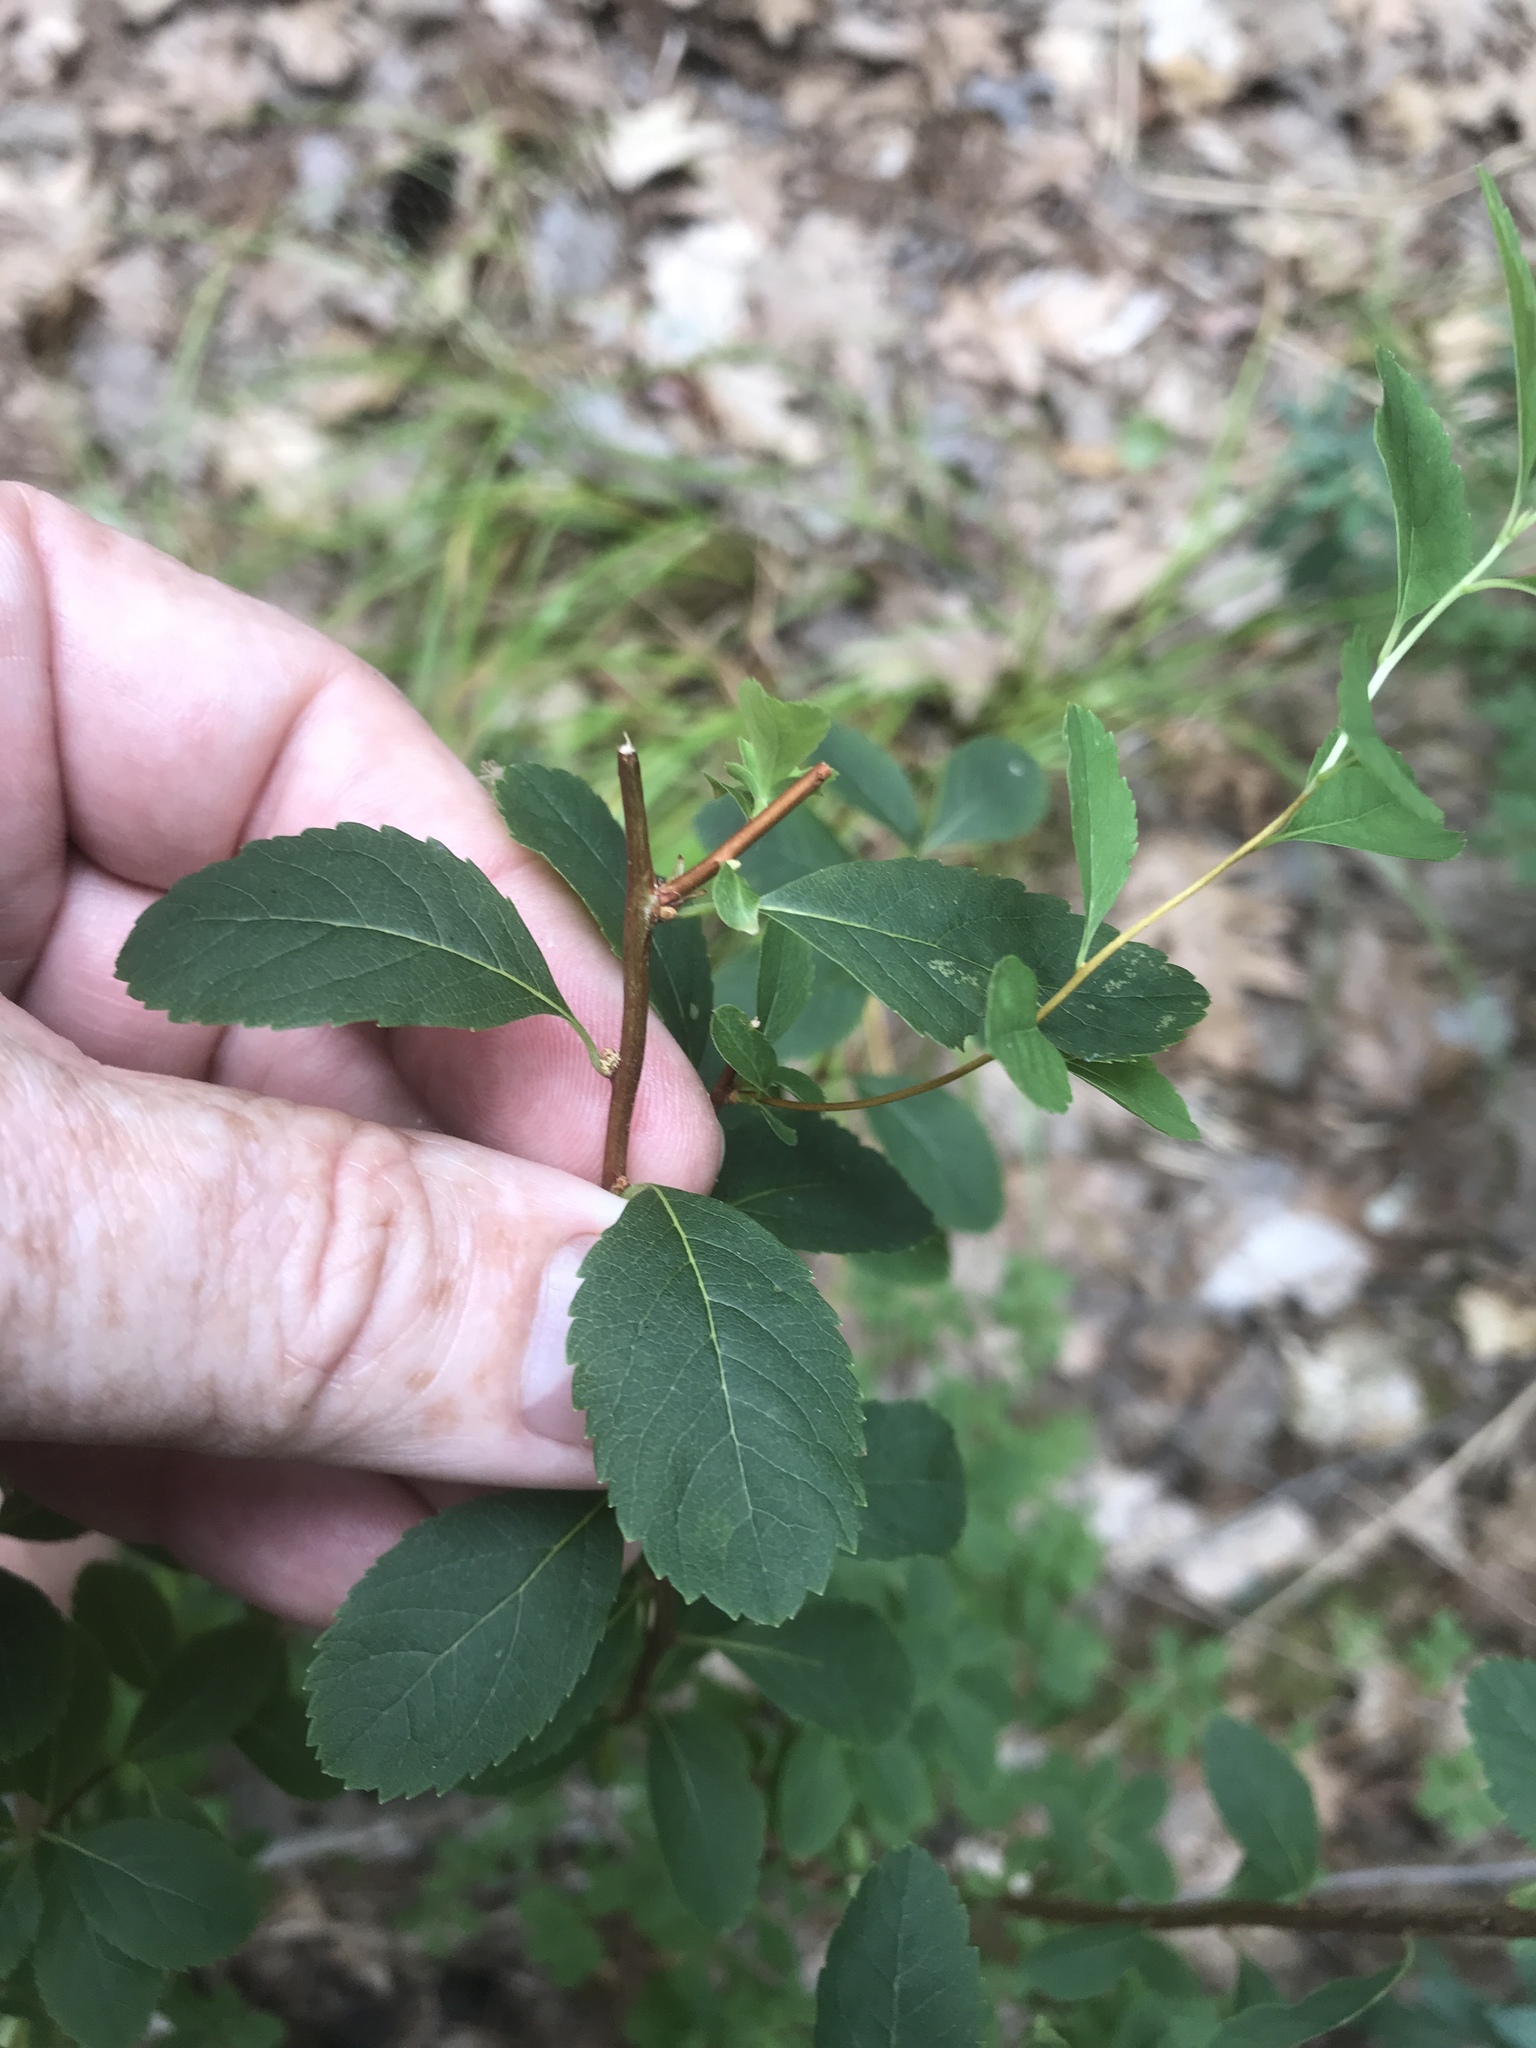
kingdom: Plantae
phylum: Tracheophyta
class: Magnoliopsida
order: Rosales
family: Rosaceae
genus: Spiraea
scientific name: Spiraea alba
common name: Pale bridewort
